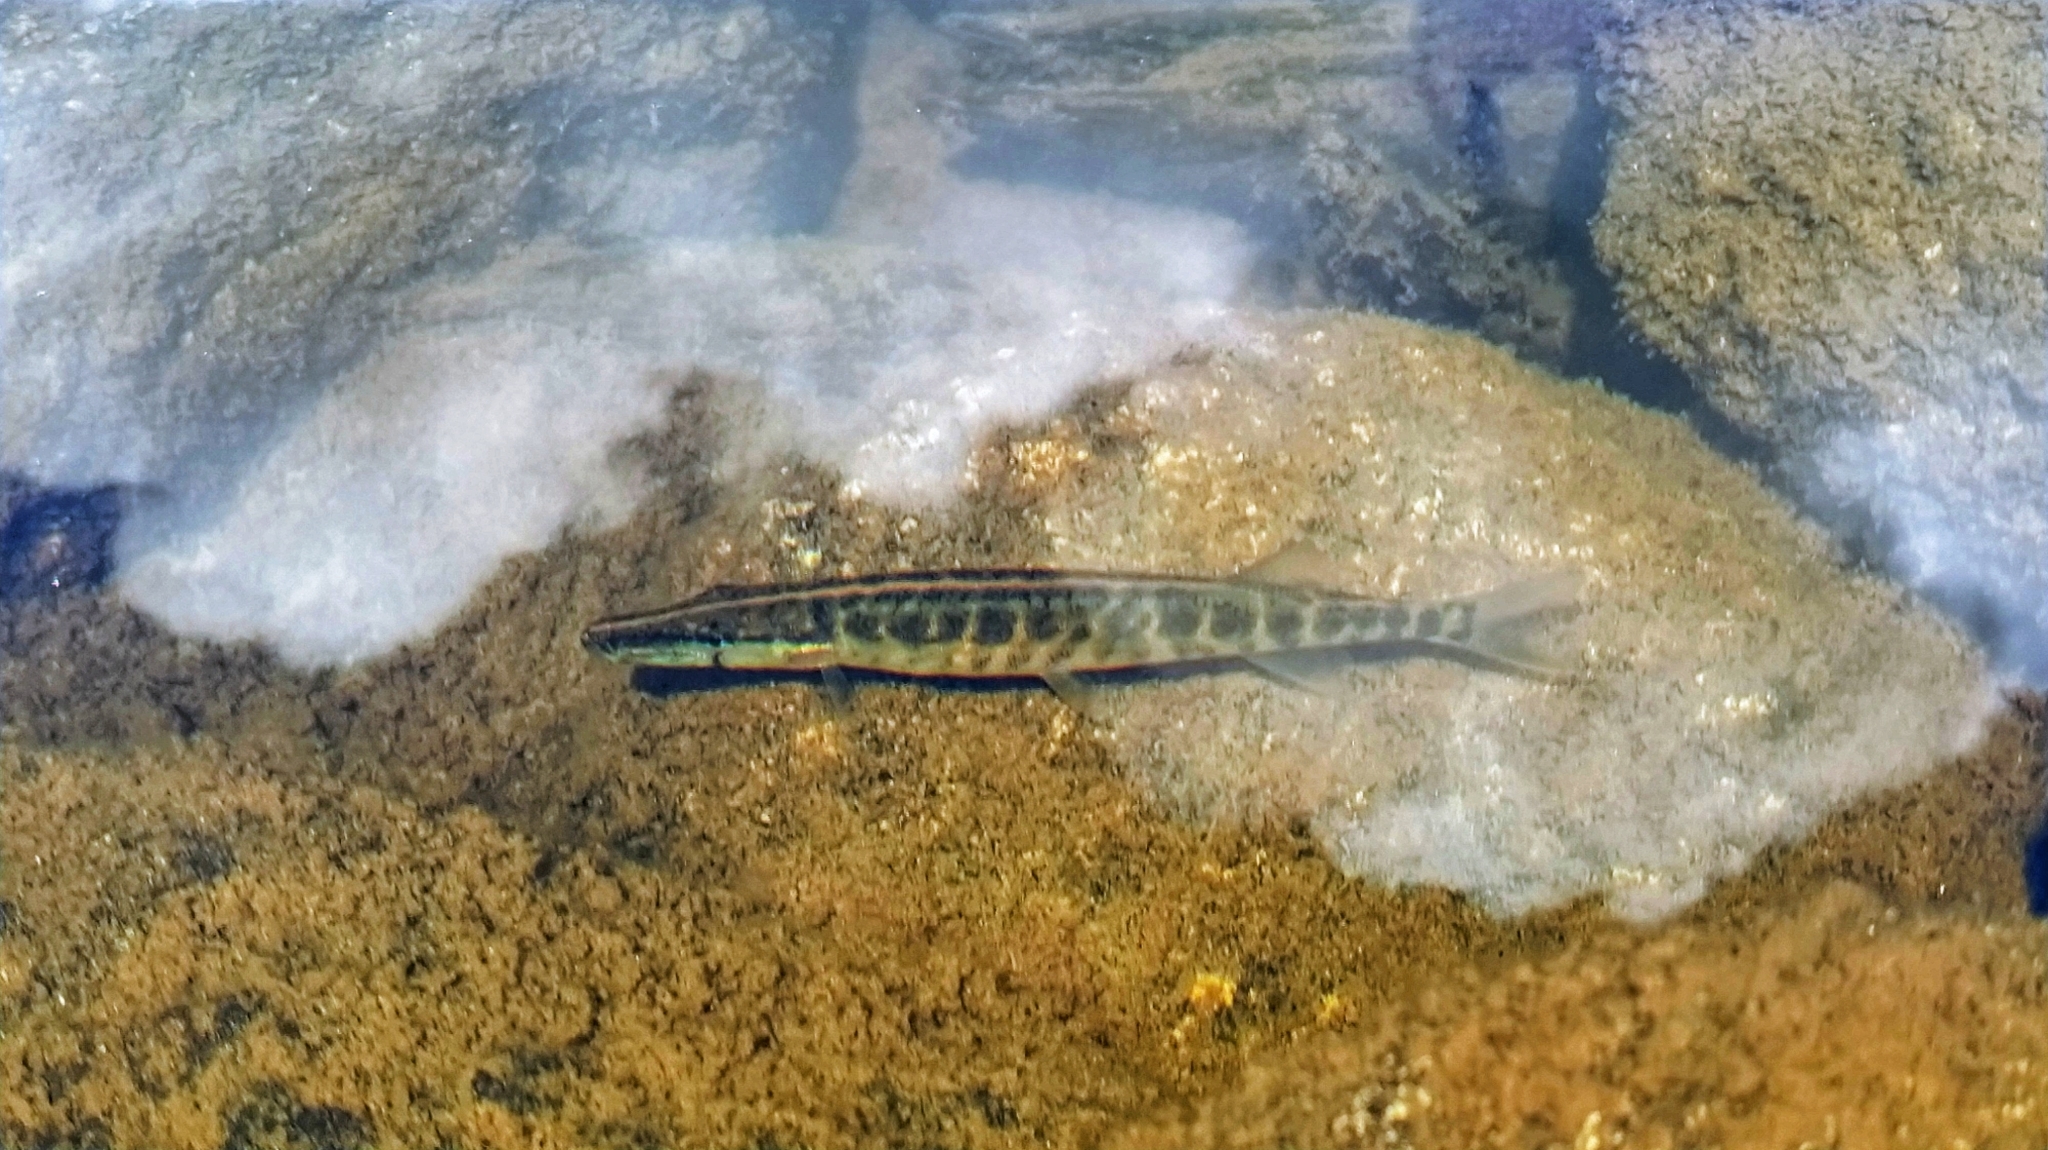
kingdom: Animalia
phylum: Chordata
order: Esociformes
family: Esocidae
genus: Esox
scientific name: Esox niger
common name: Chain pickerel
